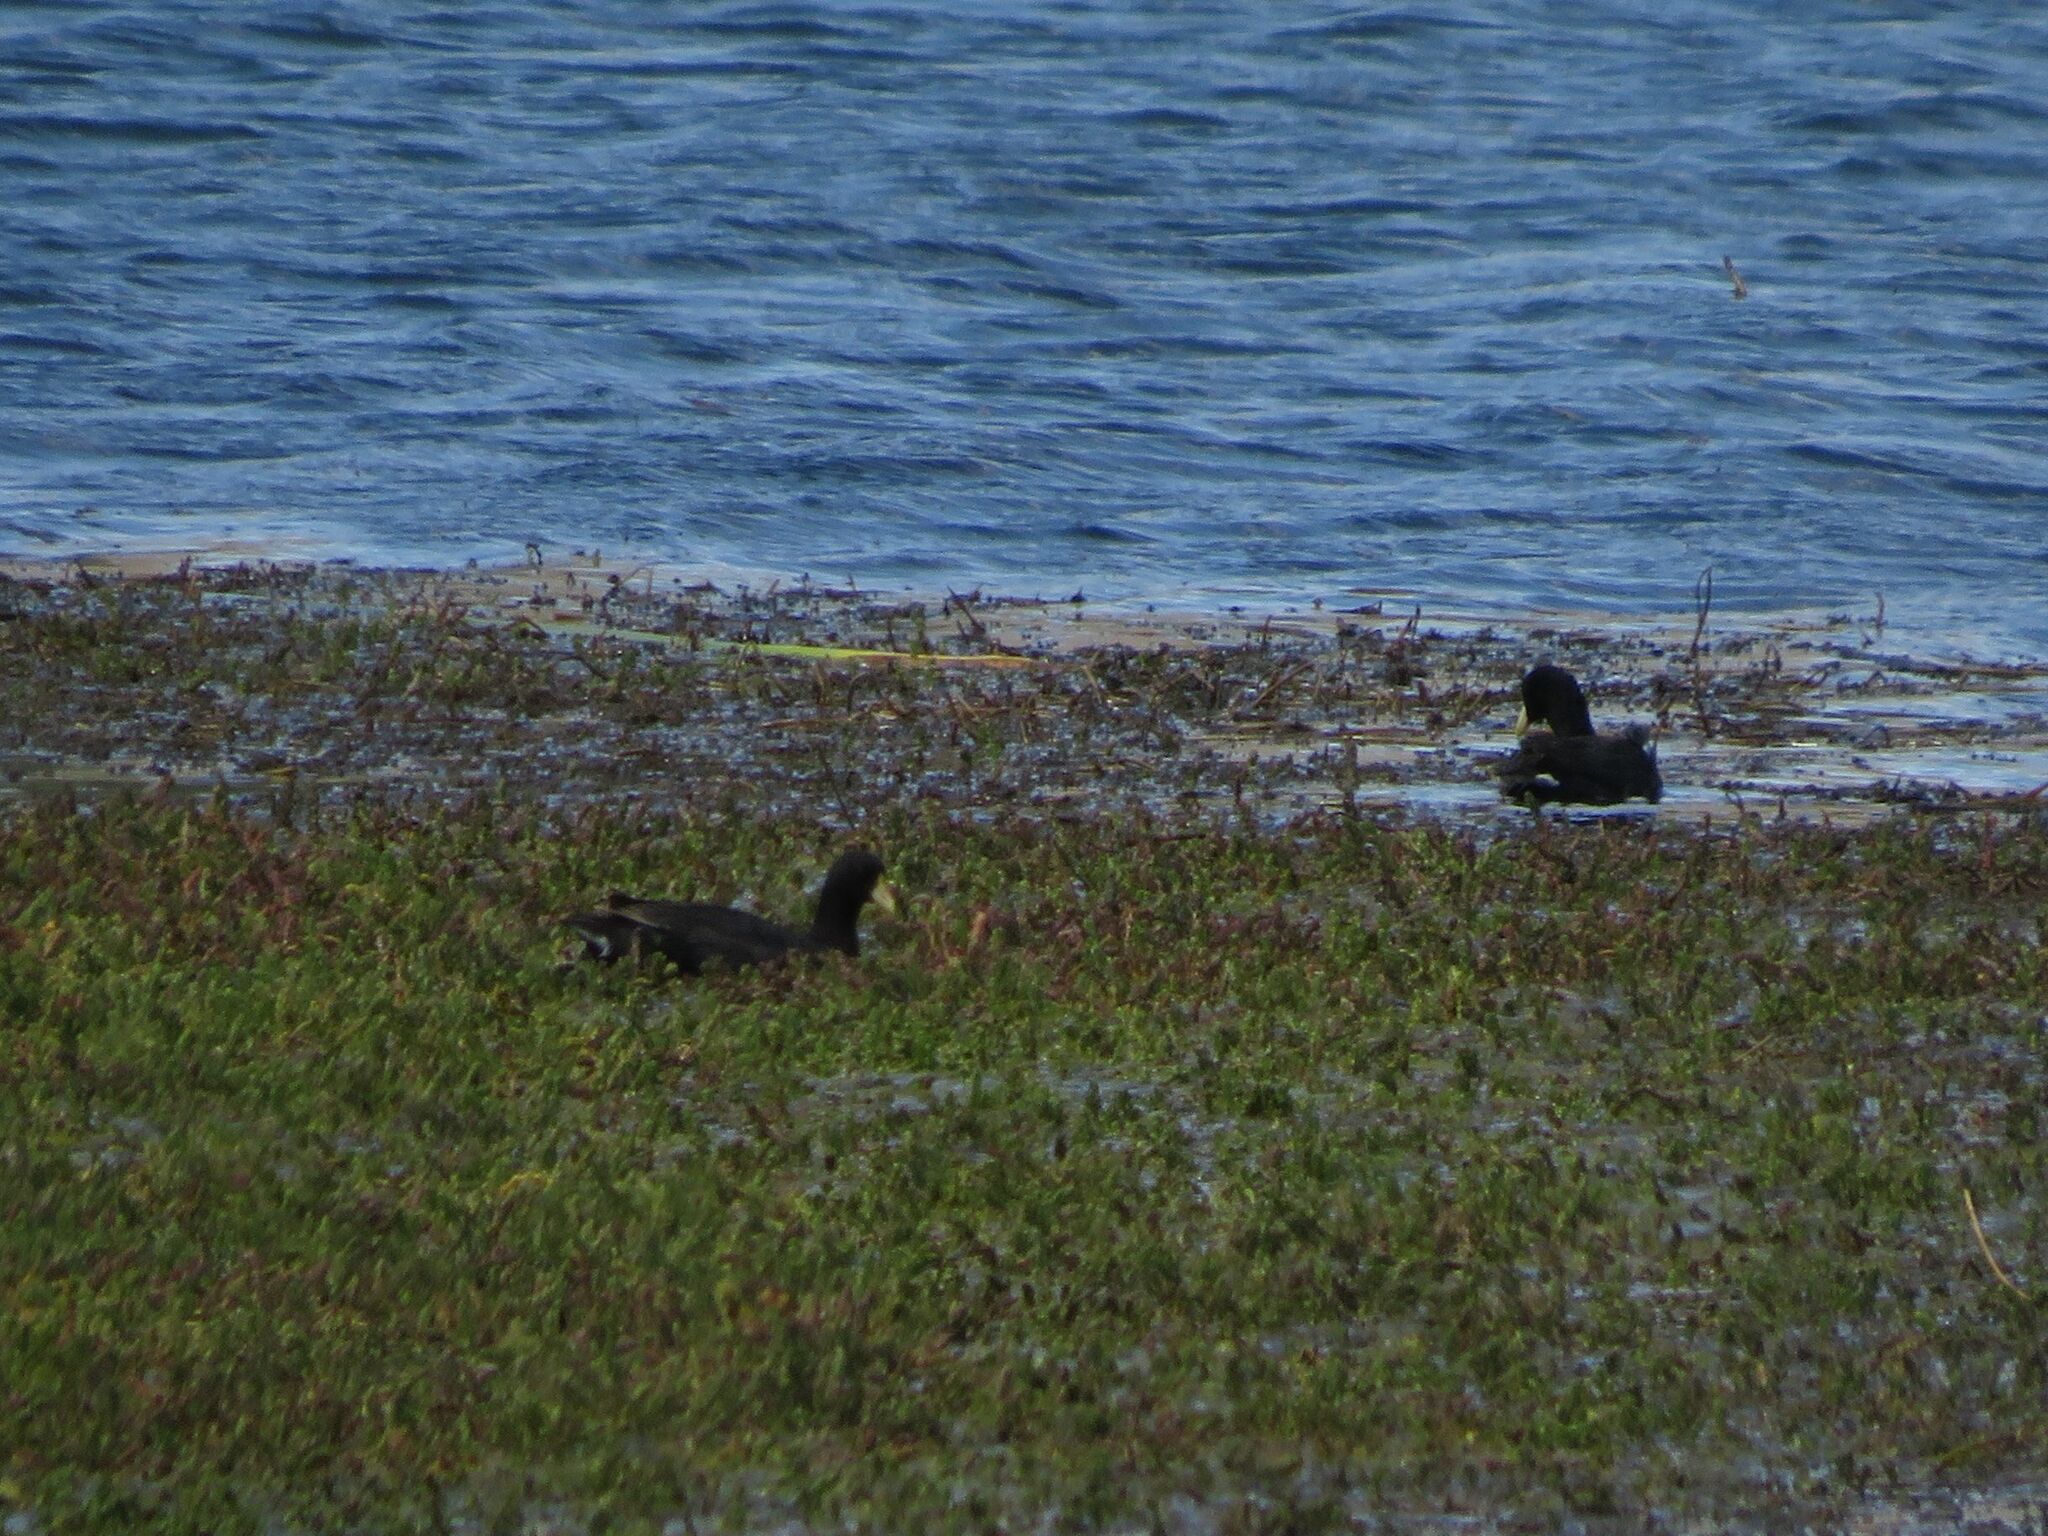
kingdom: Animalia
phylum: Chordata
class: Aves
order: Gruiformes
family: Rallidae
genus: Fulica
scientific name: Fulica leucoptera
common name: White-winged coot
